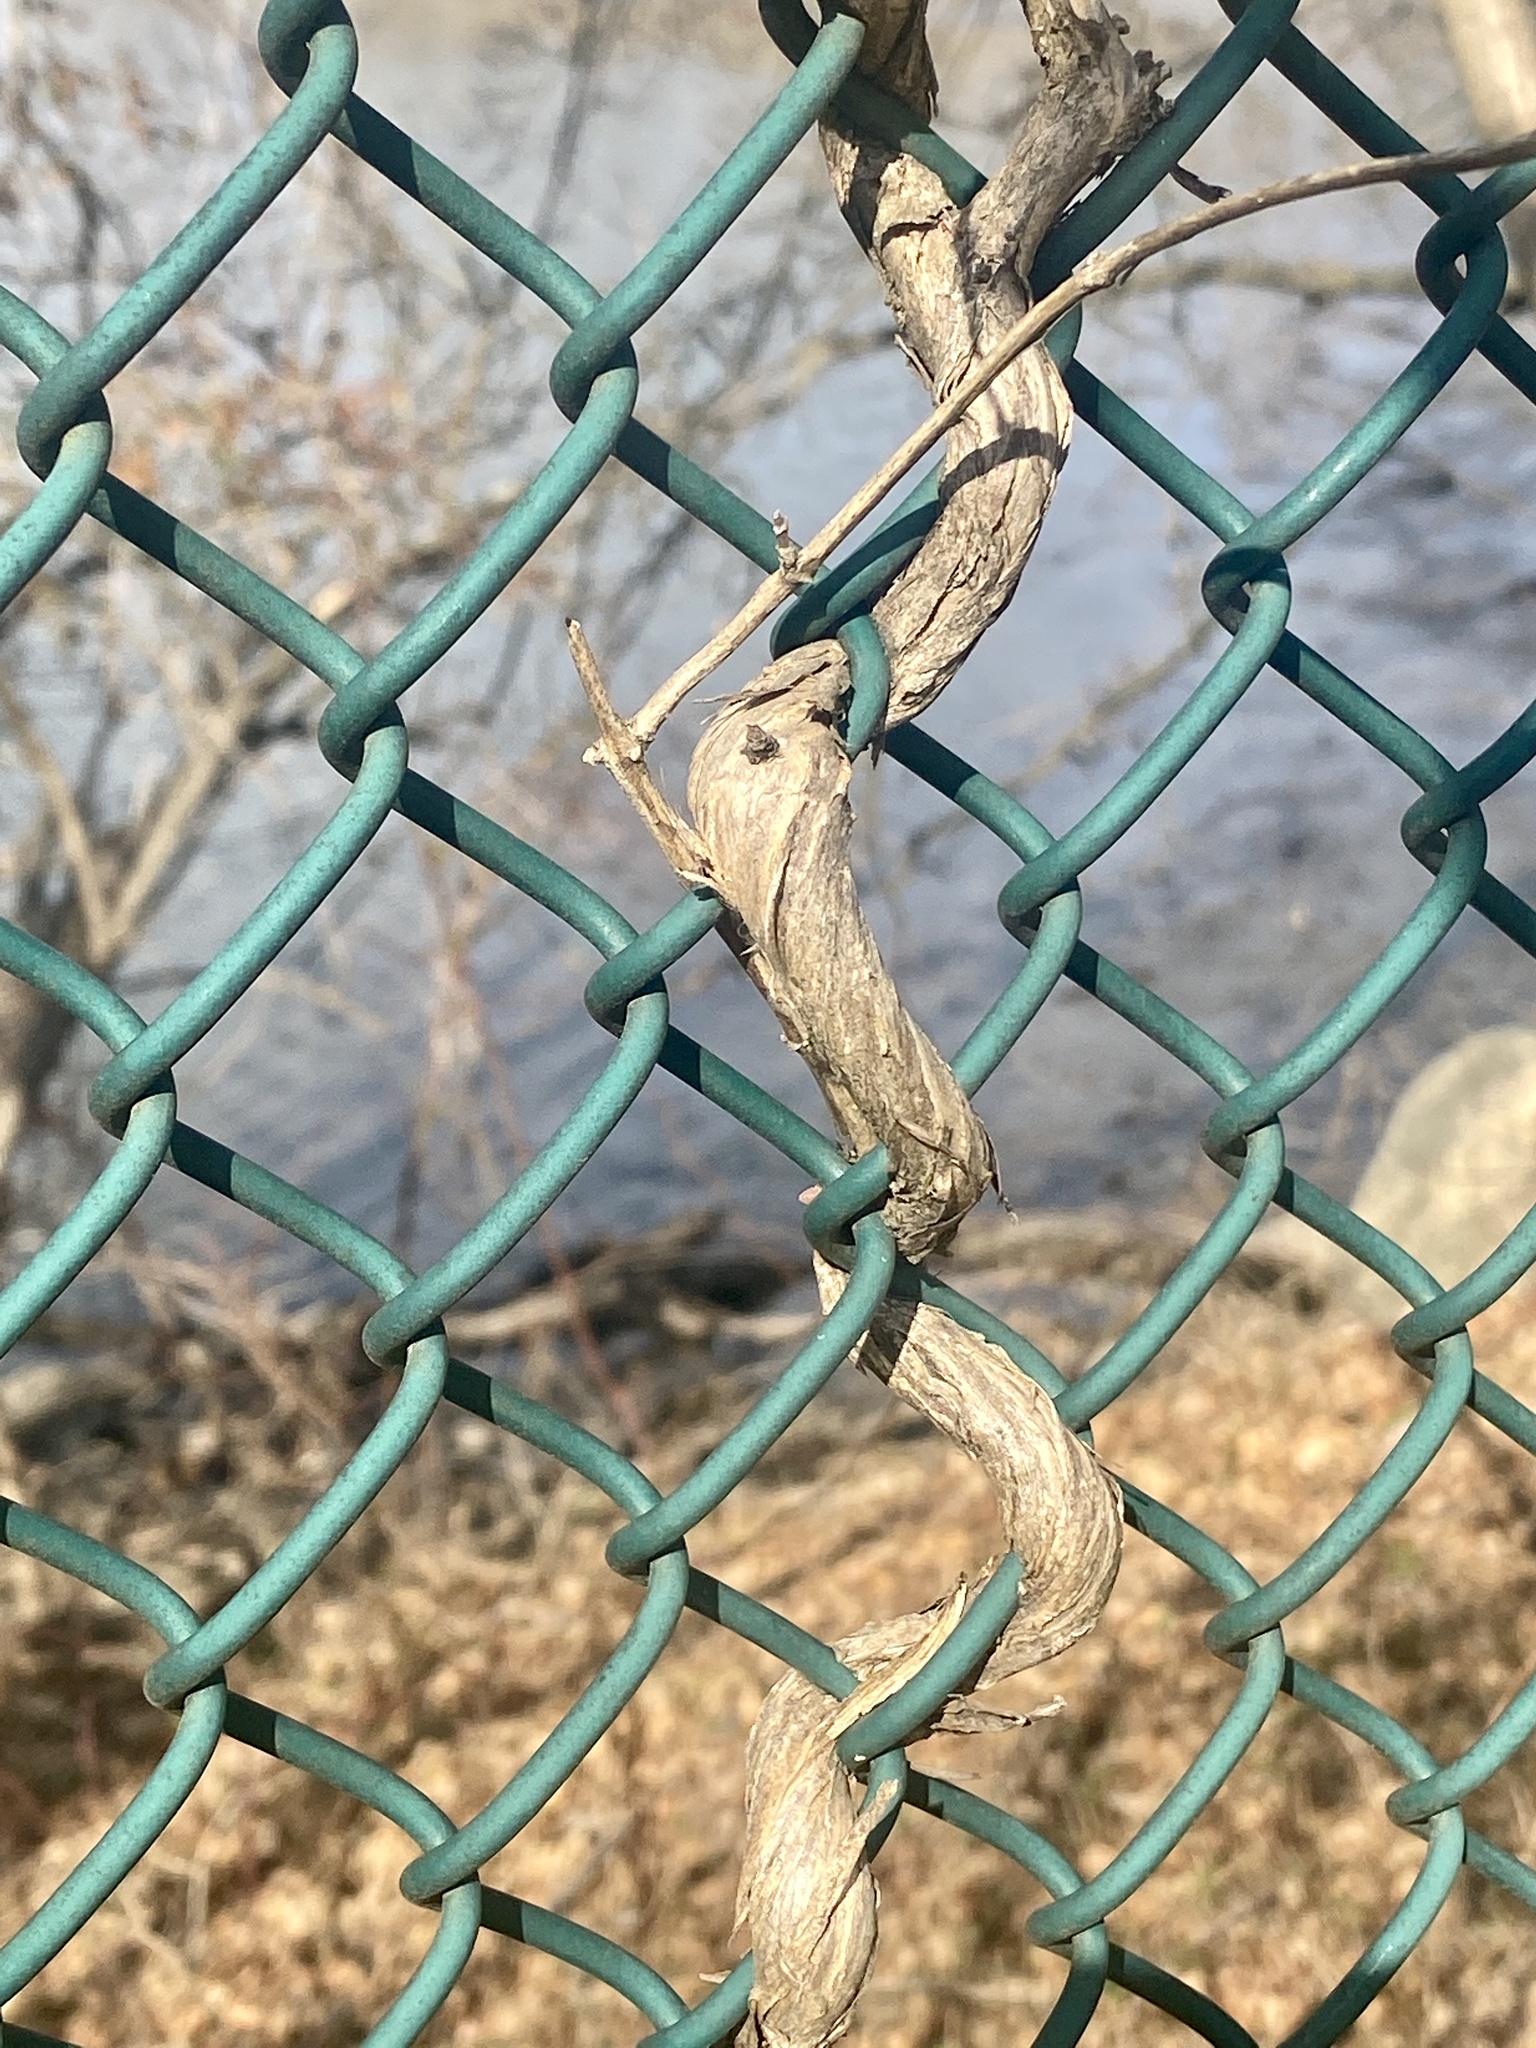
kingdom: Plantae
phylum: Tracheophyta
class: Magnoliopsida
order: Dipsacales
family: Caprifoliaceae
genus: Lonicera
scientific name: Lonicera japonica
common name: Japanese honeysuckle
